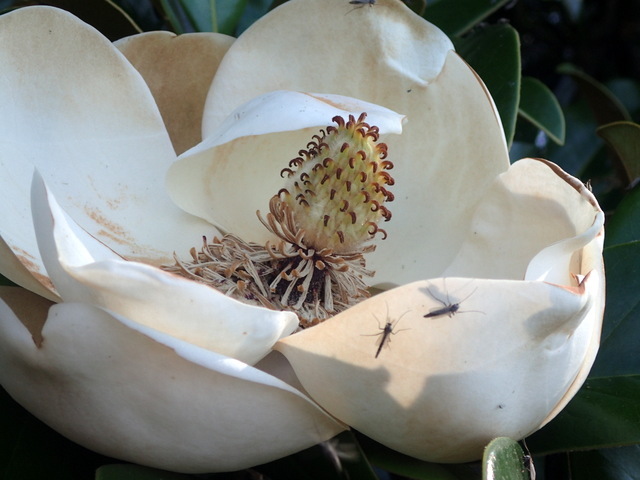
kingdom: Plantae
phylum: Tracheophyta
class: Magnoliopsida
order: Magnoliales
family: Magnoliaceae
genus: Magnolia
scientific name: Magnolia grandiflora
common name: Southern magnolia
